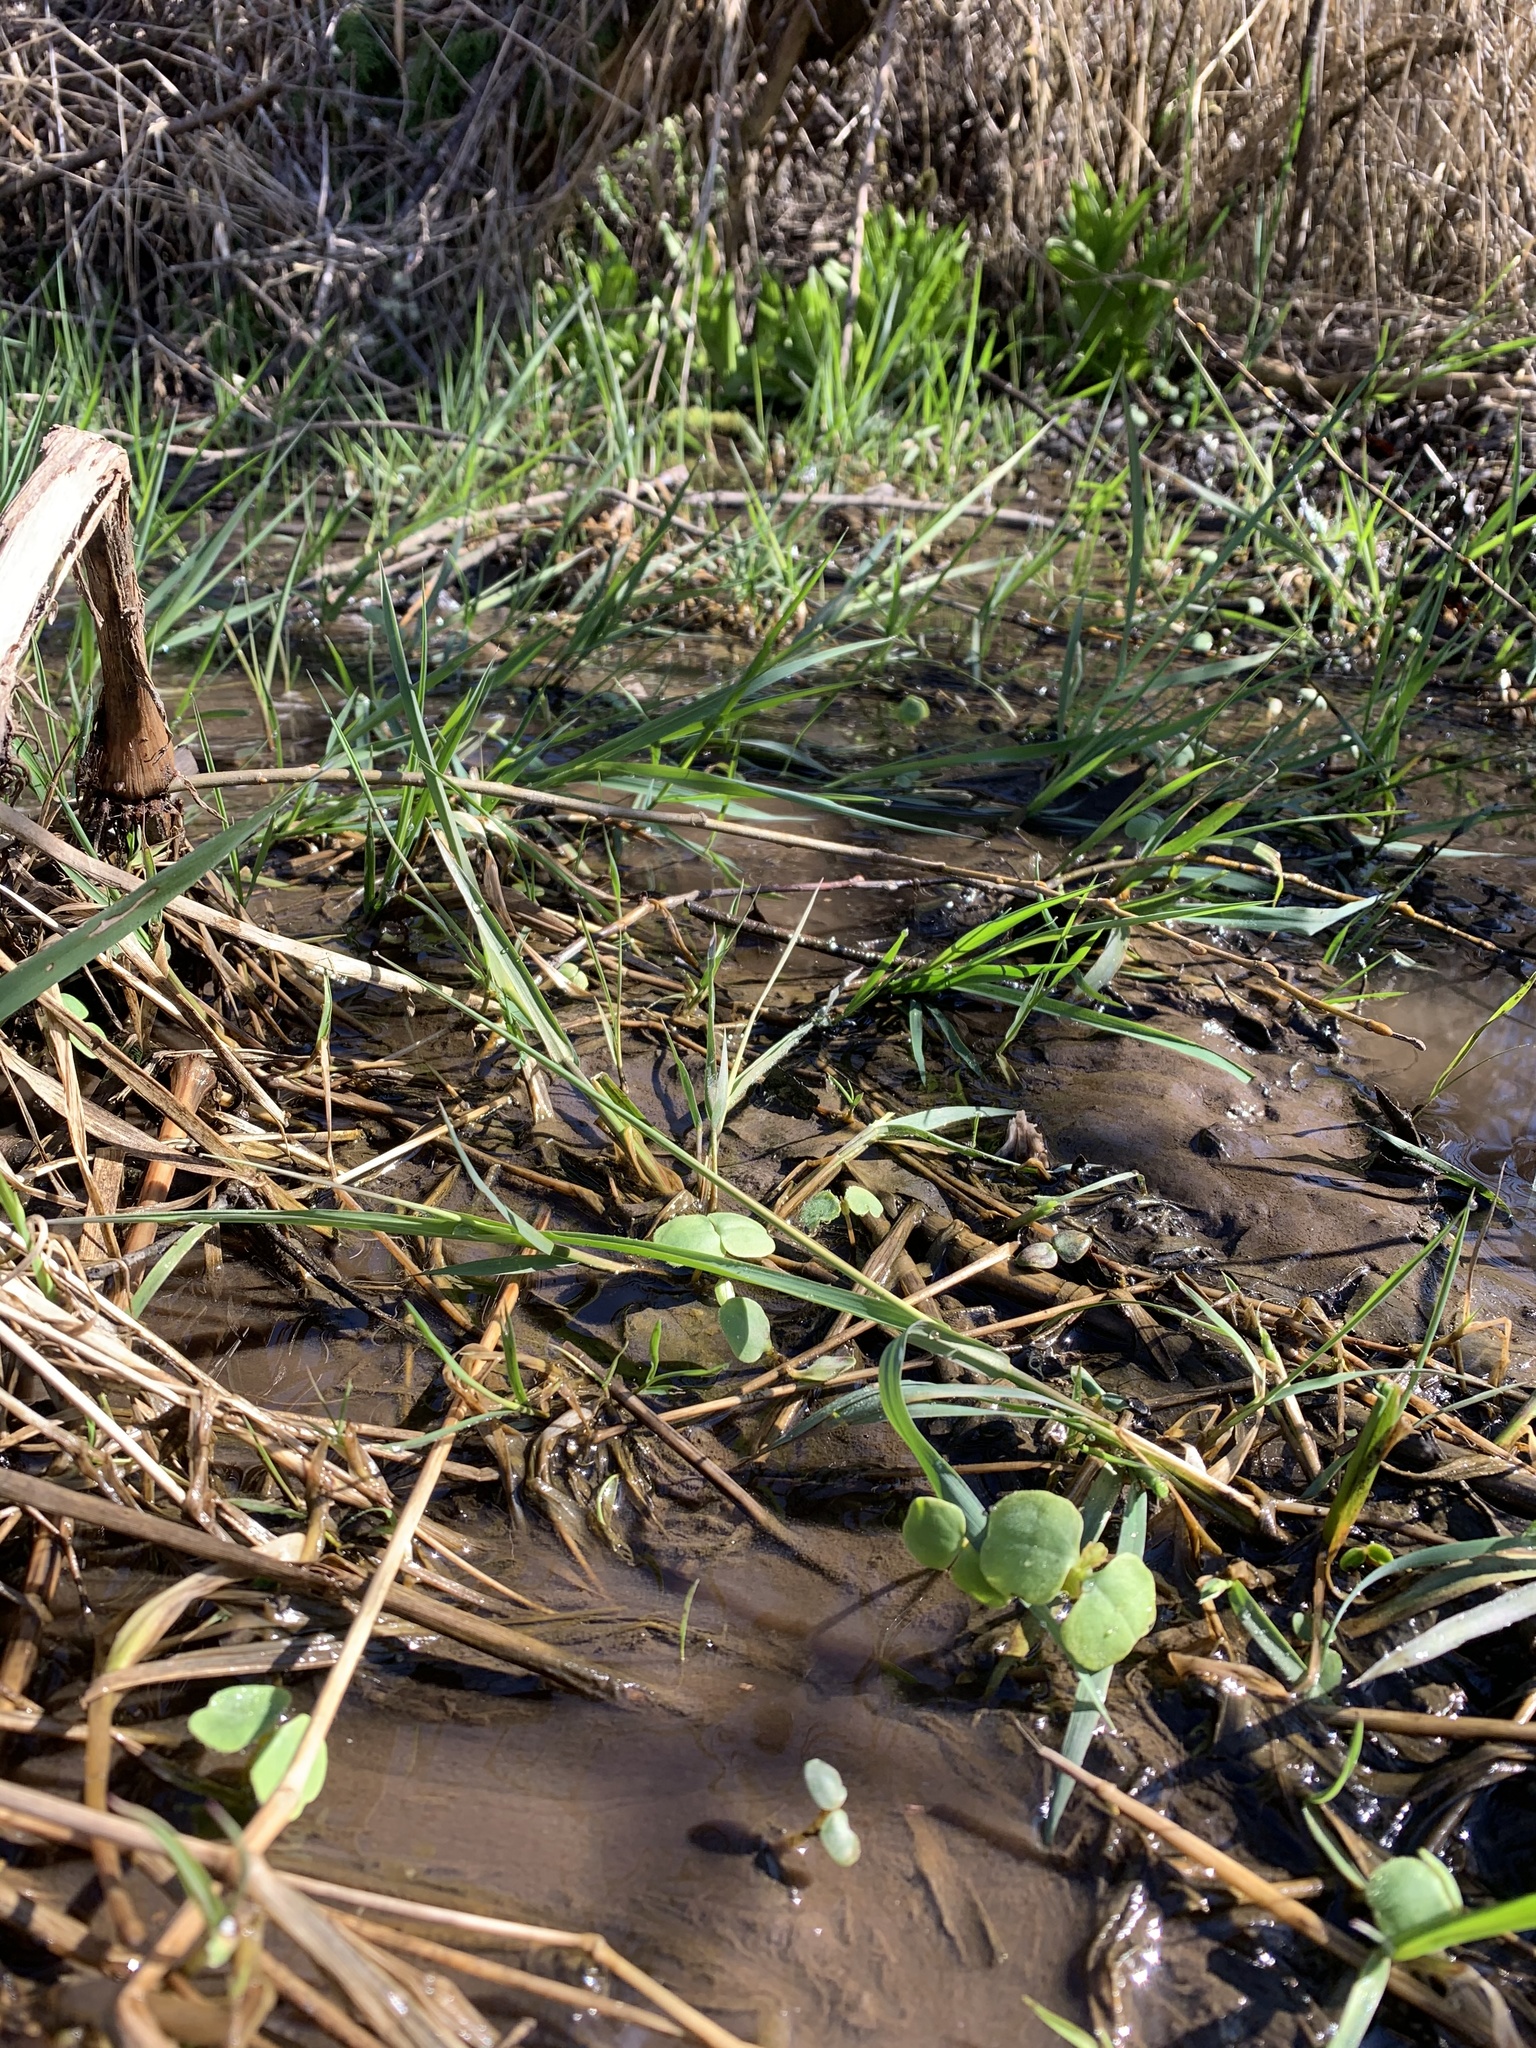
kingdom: Plantae
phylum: Tracheophyta
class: Liliopsida
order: Liliales
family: Melanthiaceae
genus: Veratrum
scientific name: Veratrum californicum
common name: California veratrum
